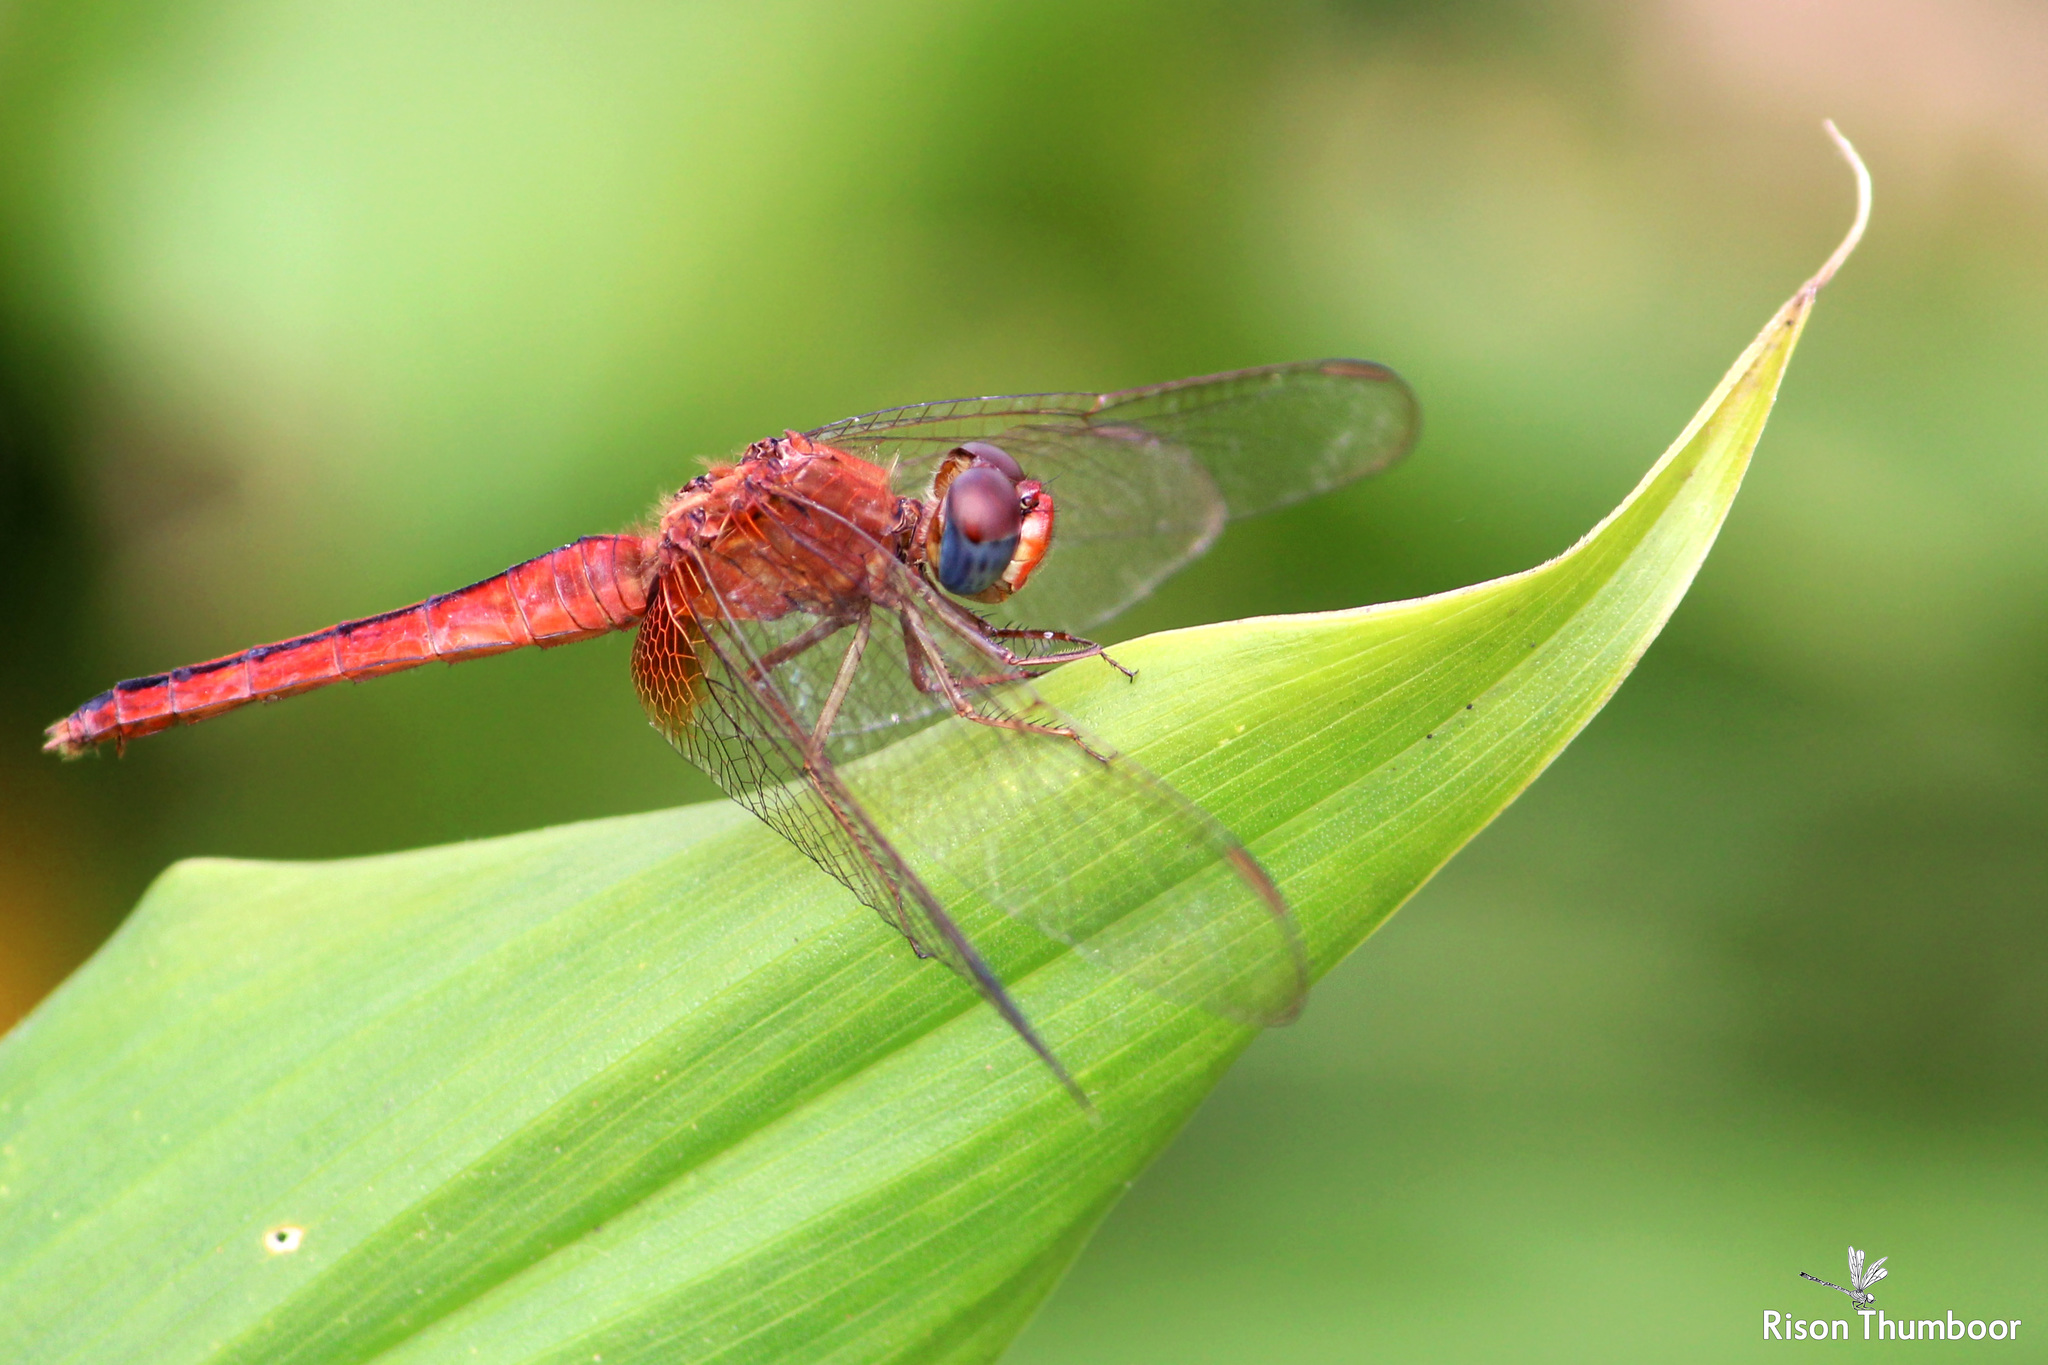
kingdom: Animalia
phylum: Arthropoda
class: Insecta
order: Odonata
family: Libellulidae
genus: Crocothemis
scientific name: Crocothemis servilia
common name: Scarlet skimmer
